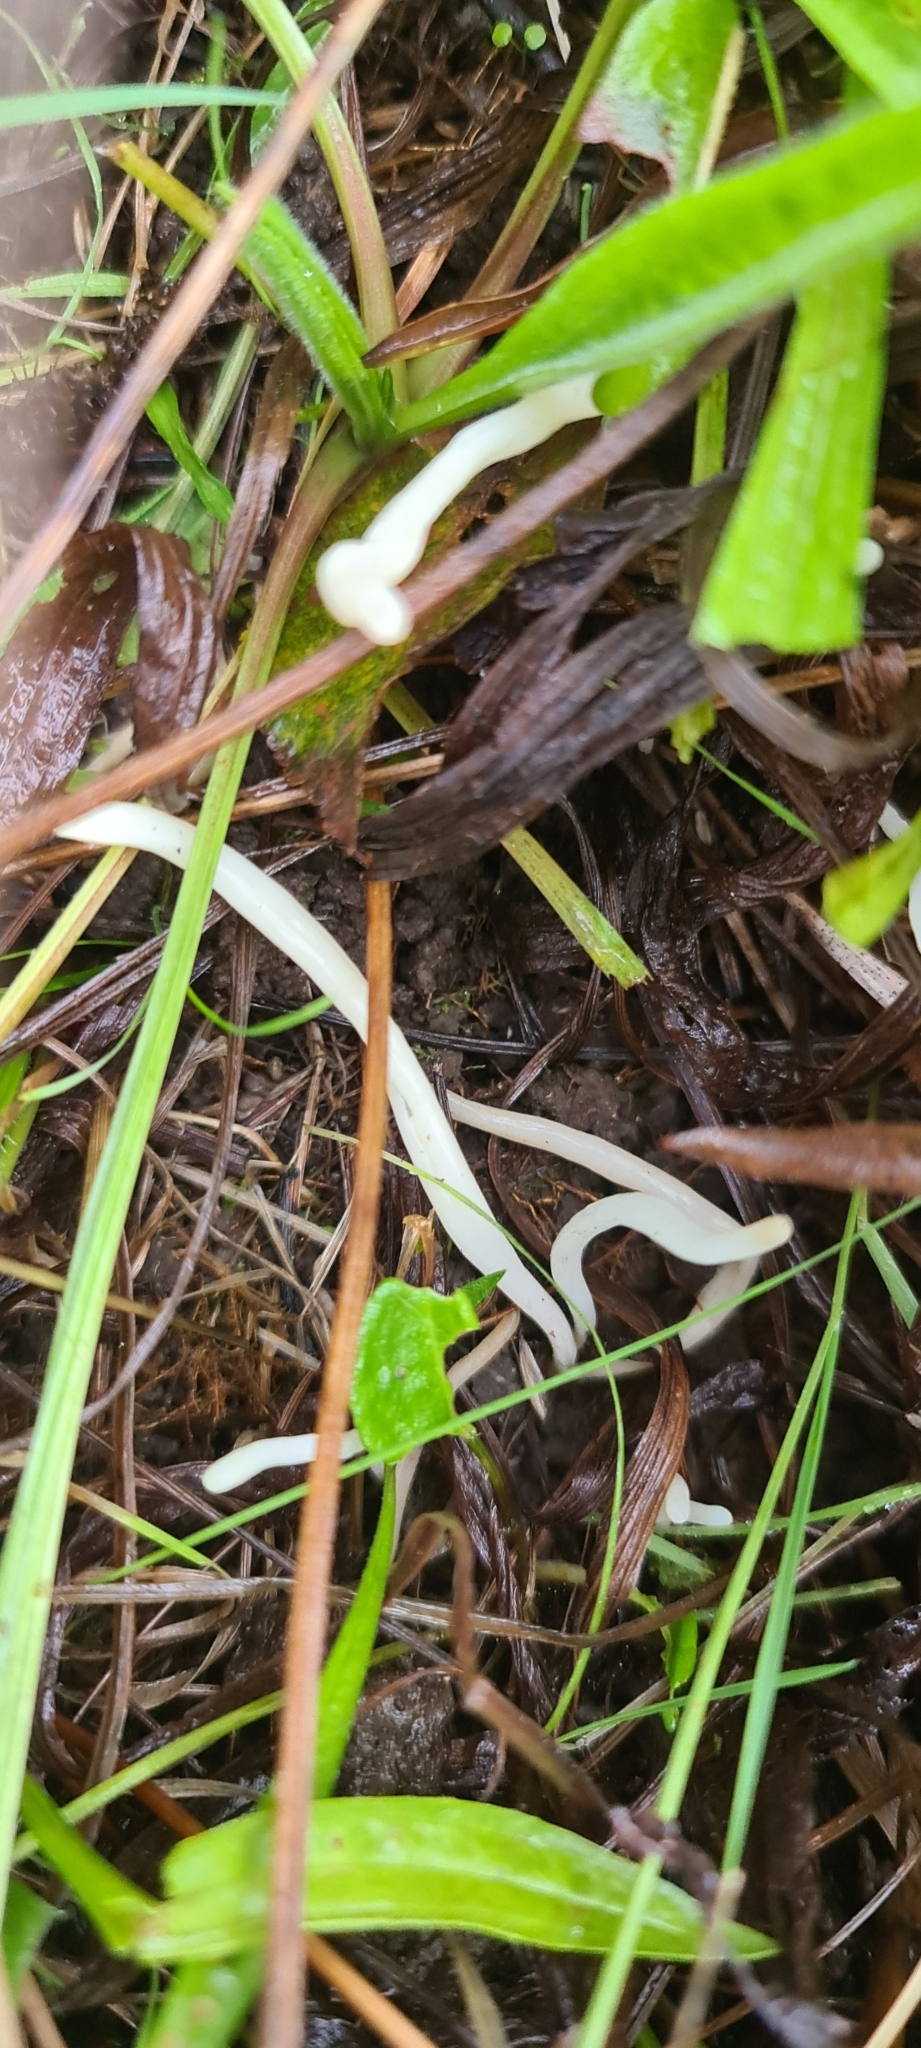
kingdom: Fungi
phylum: Basidiomycota
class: Agaricomycetes
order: Agaricales
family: Clavariaceae
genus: Clavaria
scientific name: Clavaria fragilis
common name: White spindles
